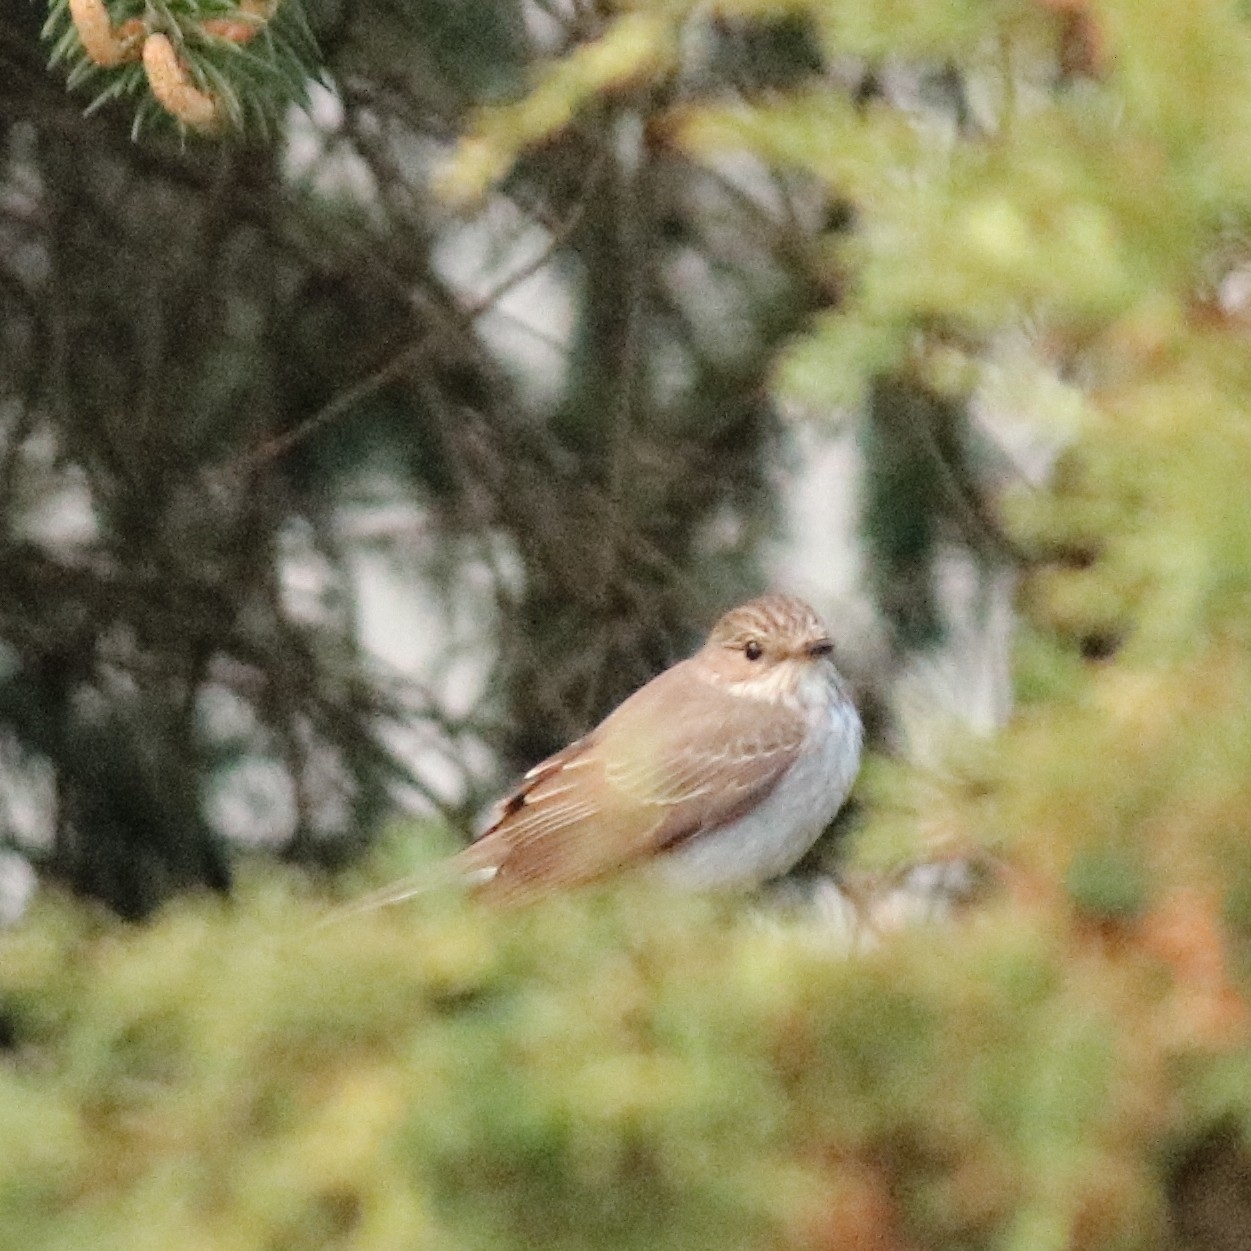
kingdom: Animalia
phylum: Chordata
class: Aves
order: Passeriformes
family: Muscicapidae
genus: Muscicapa
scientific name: Muscicapa striata
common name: Spotted flycatcher
